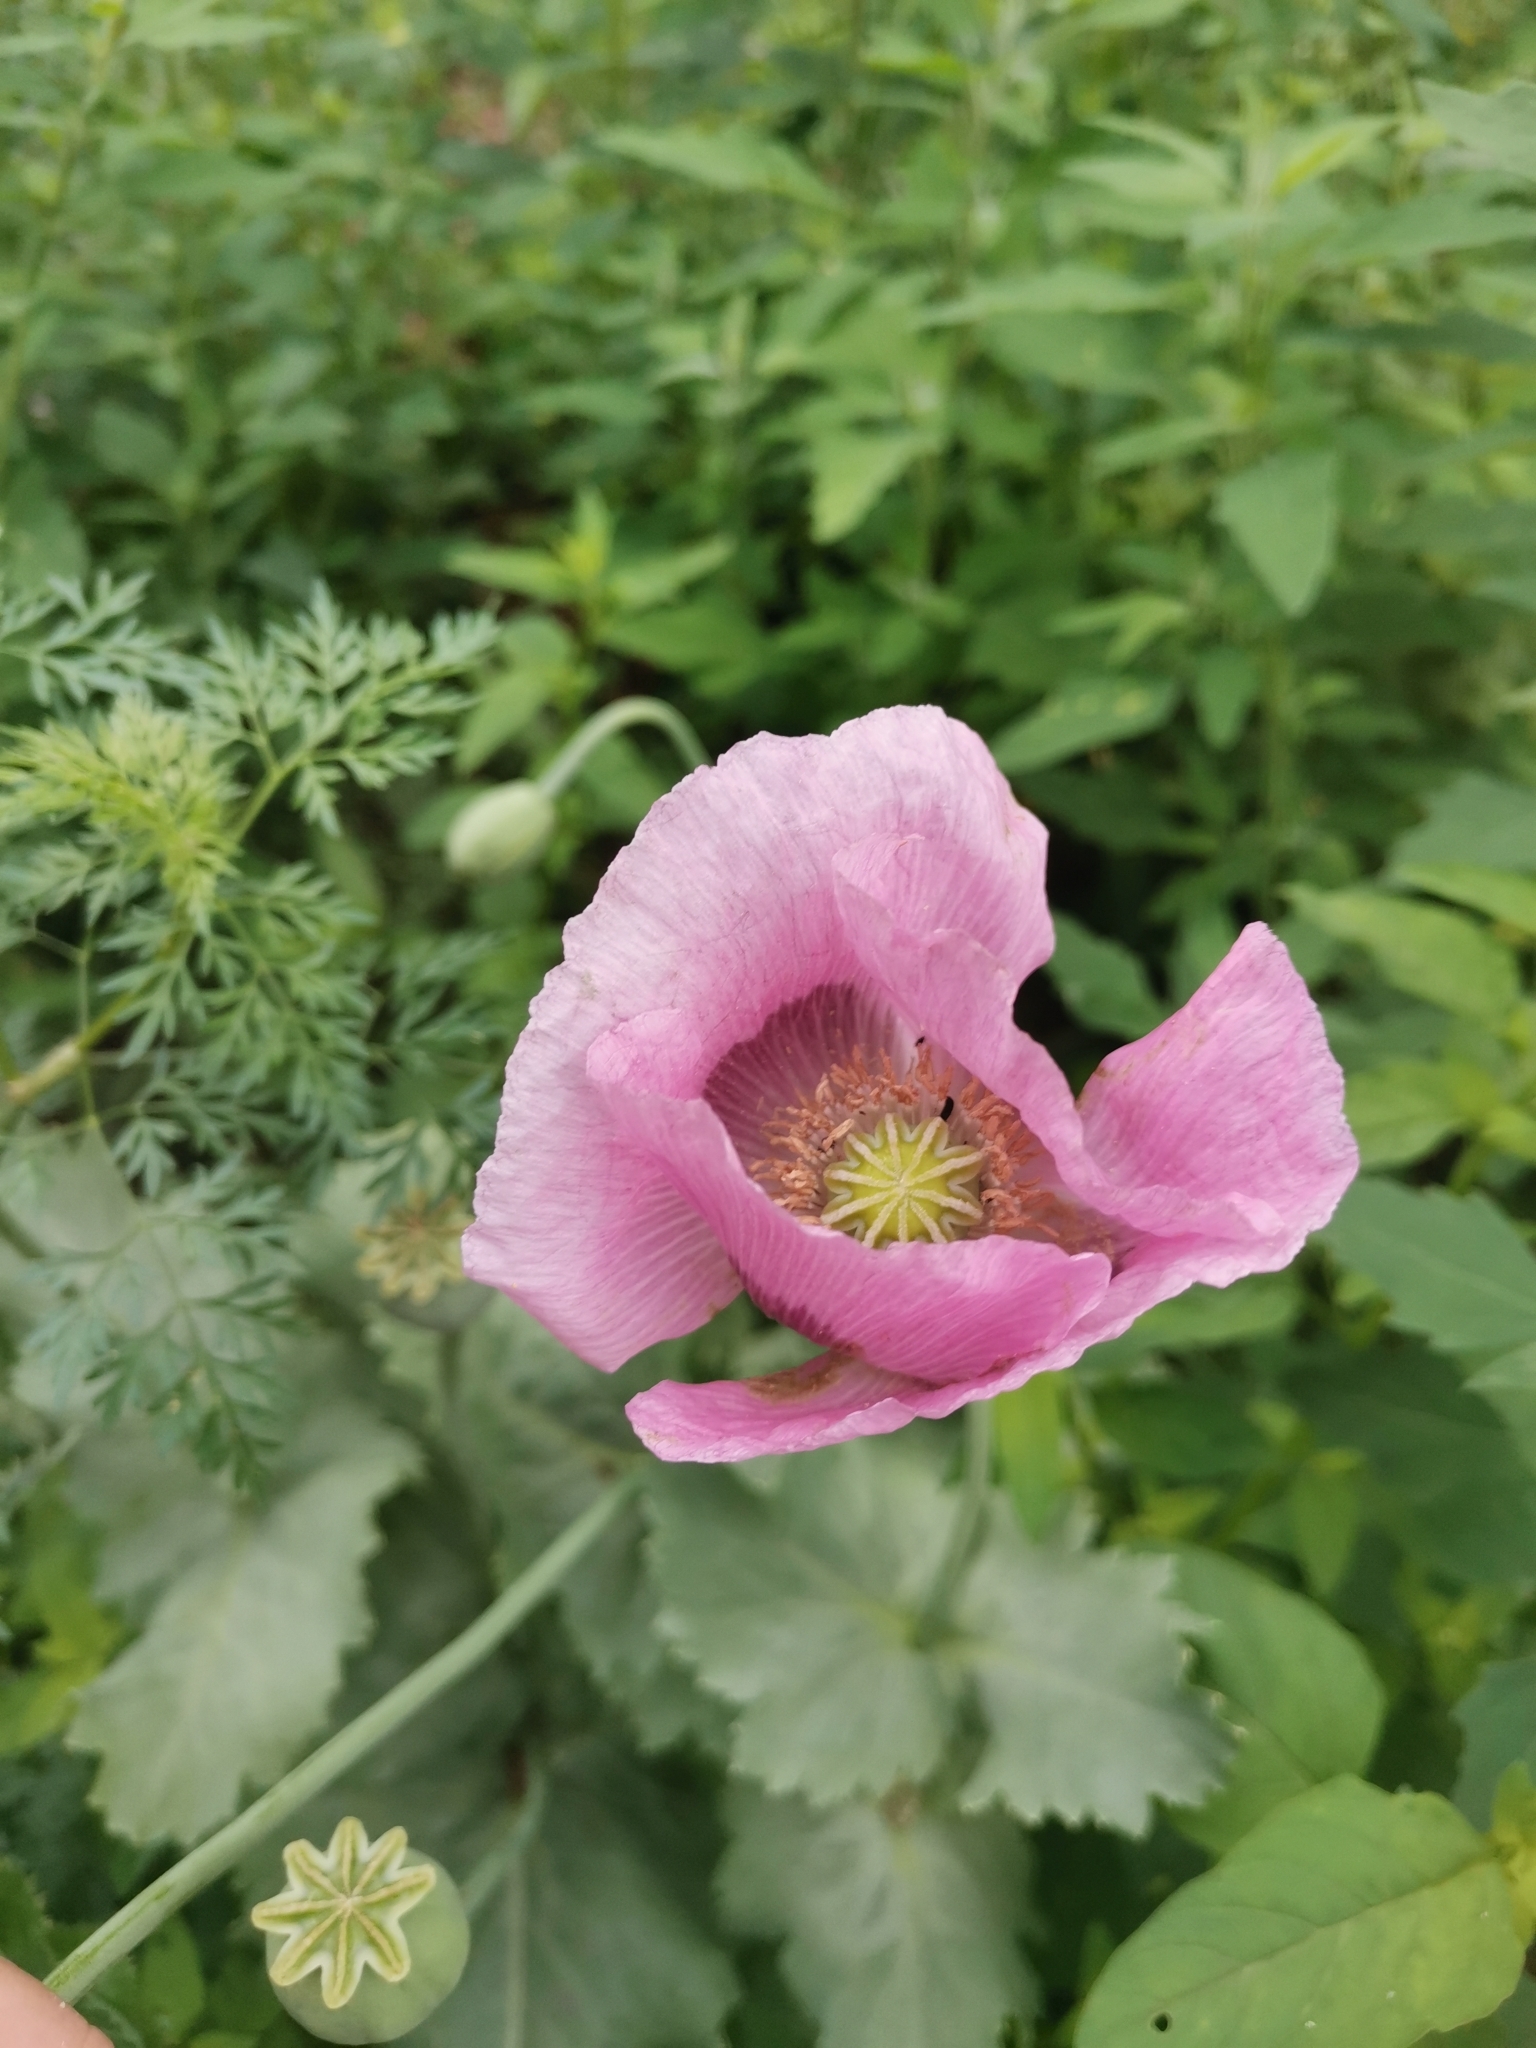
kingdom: Plantae
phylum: Tracheophyta
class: Magnoliopsida
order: Ranunculales
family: Papaveraceae
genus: Papaver
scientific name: Papaver somniferum
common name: Opium poppy
